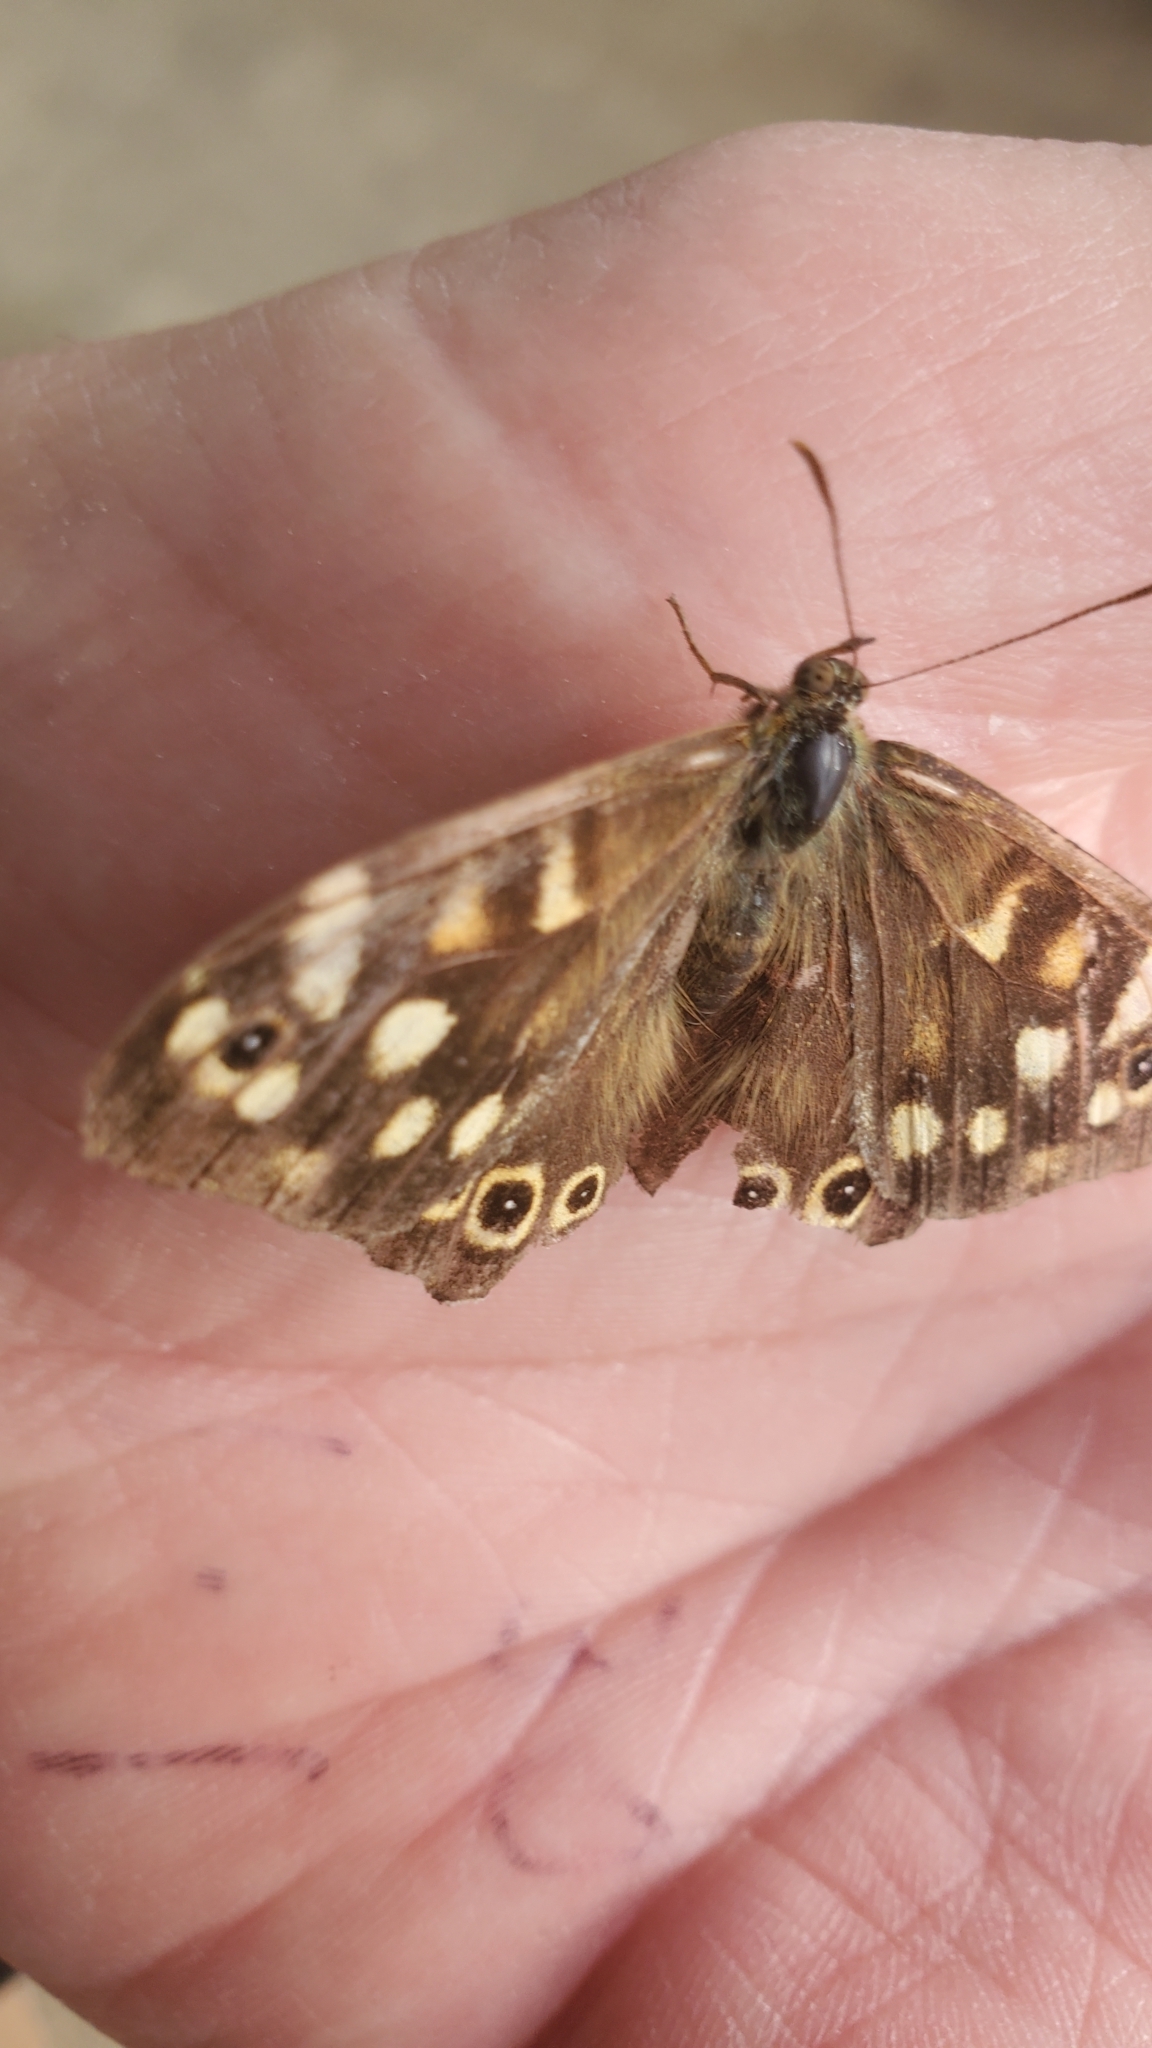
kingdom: Animalia
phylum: Arthropoda
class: Insecta
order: Lepidoptera
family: Nymphalidae
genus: Pararge
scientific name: Pararge aegeria
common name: Speckled wood
